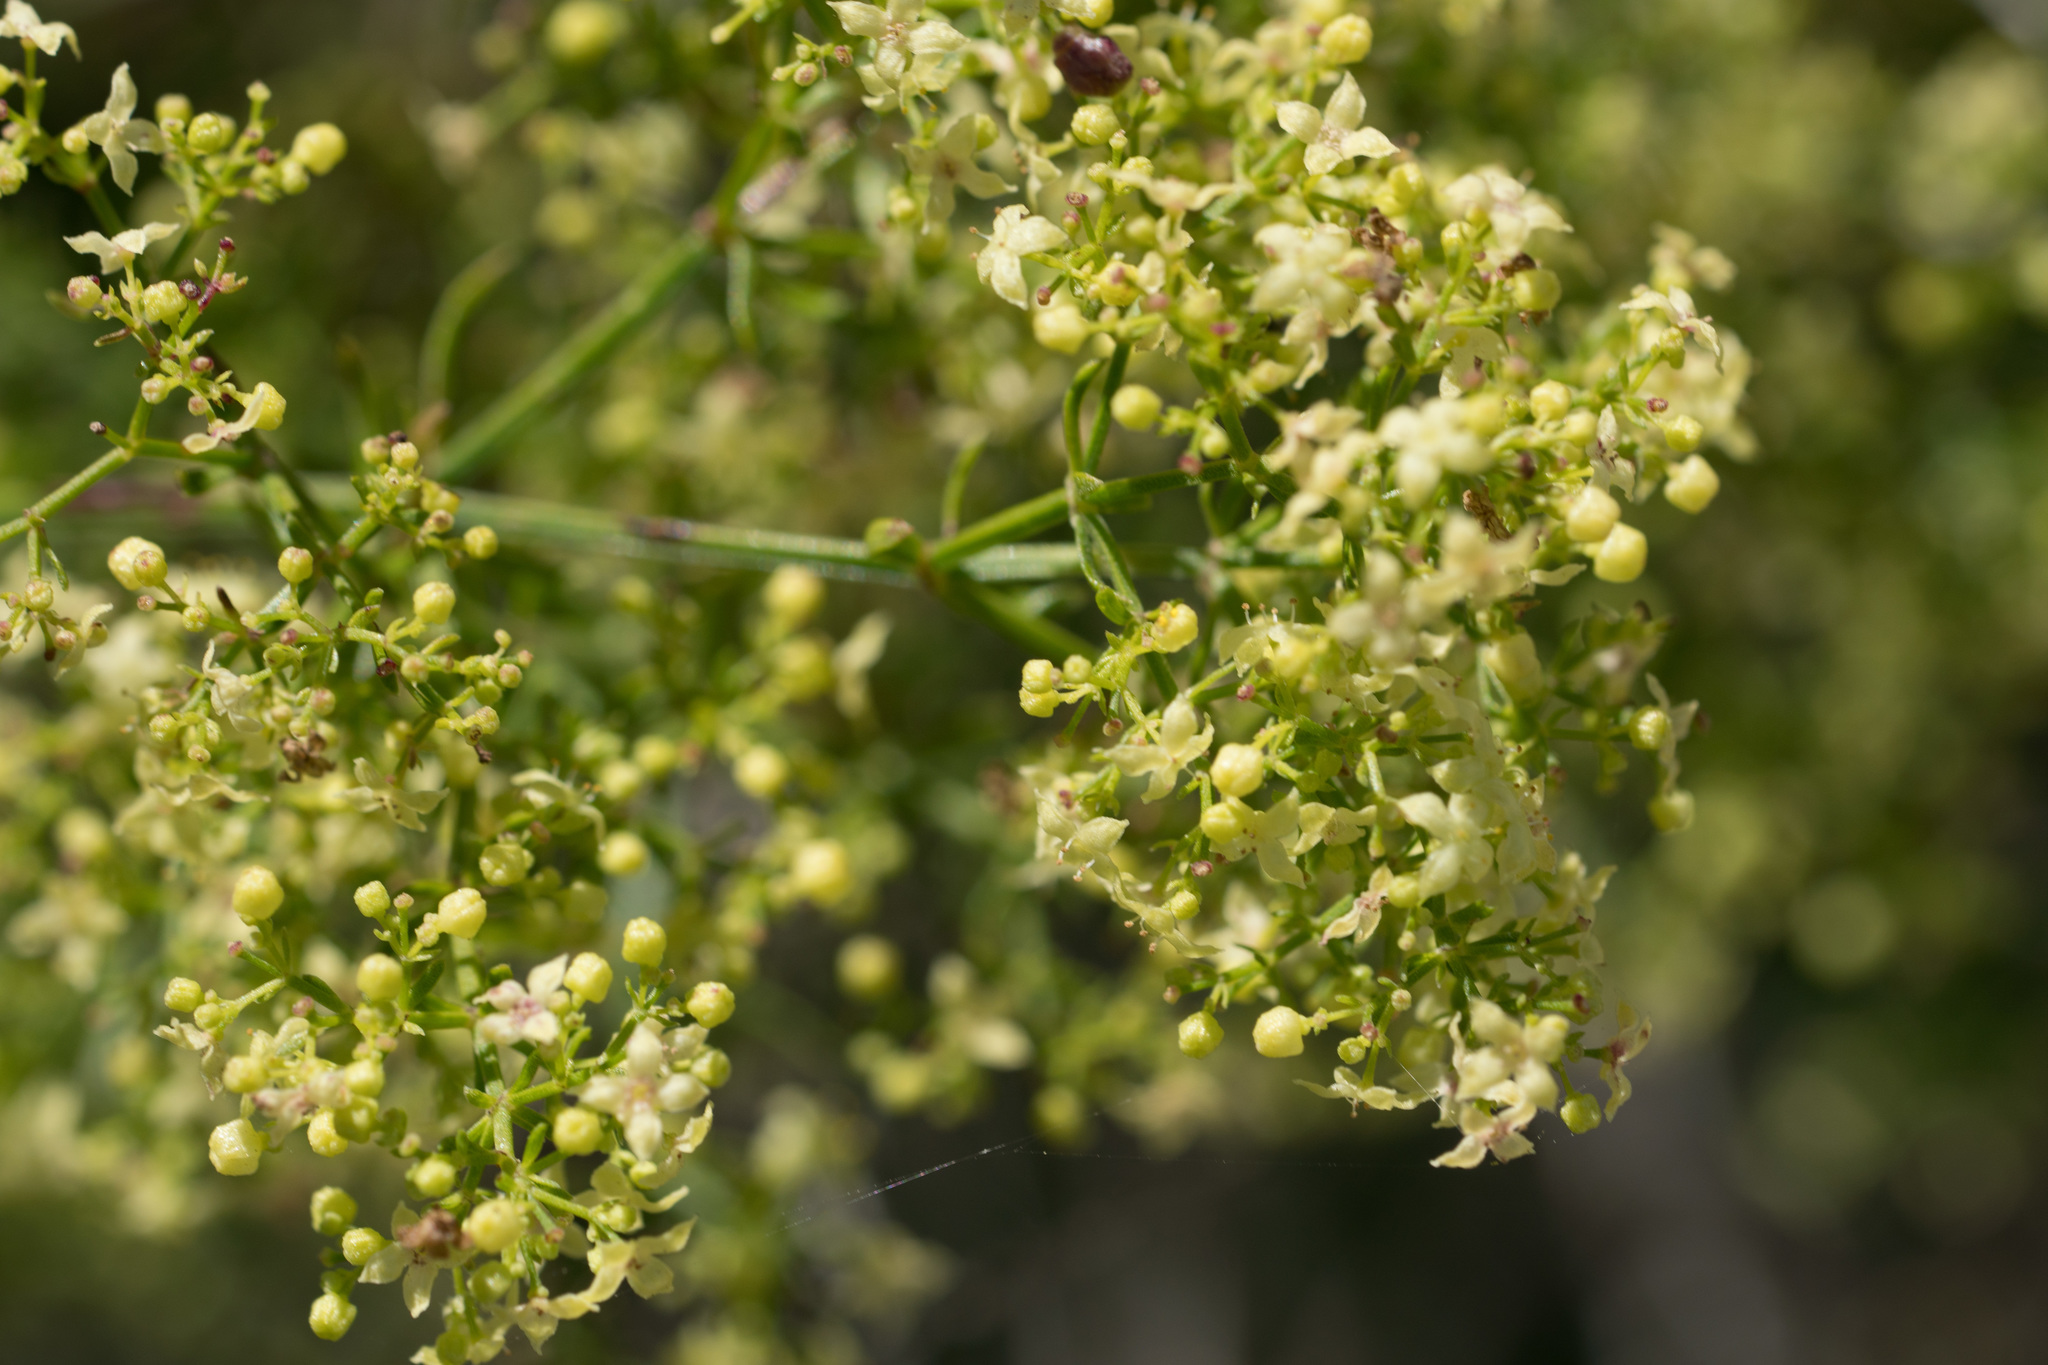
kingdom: Plantae
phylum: Tracheophyta
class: Magnoliopsida
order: Gentianales
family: Rubiaceae
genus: Galium
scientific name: Galium angustifolium
